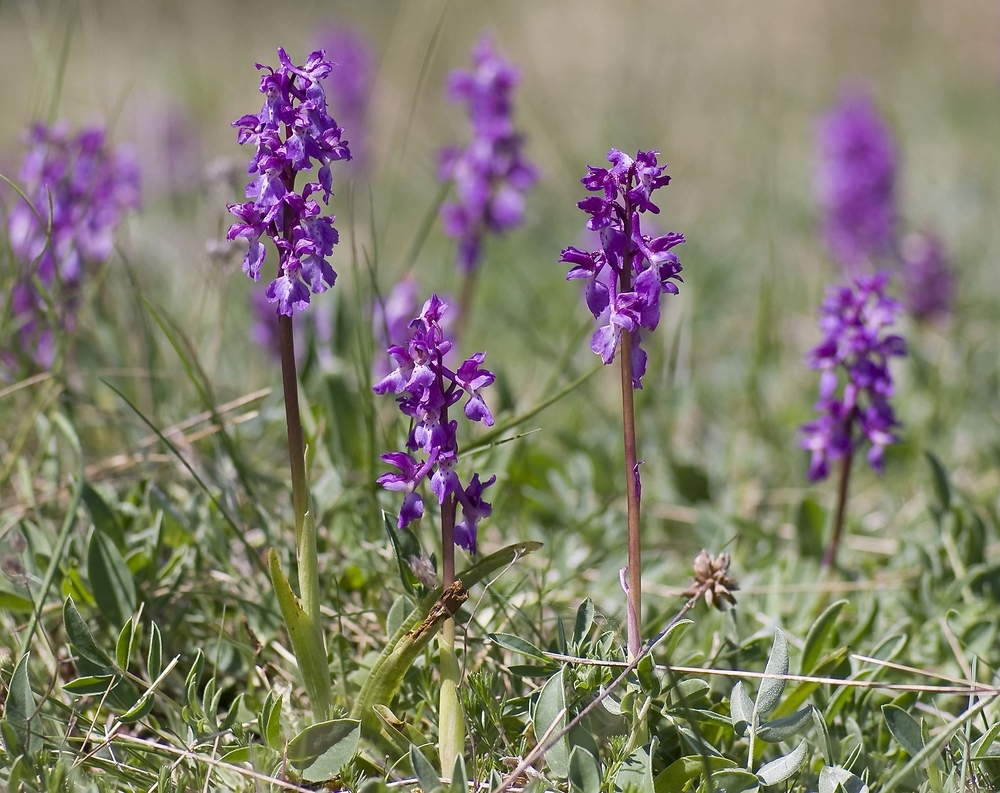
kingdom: Plantae
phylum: Tracheophyta
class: Liliopsida
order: Asparagales
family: Orchidaceae
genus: Orchis
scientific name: Orchis mascula
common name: Early-purple orchid
